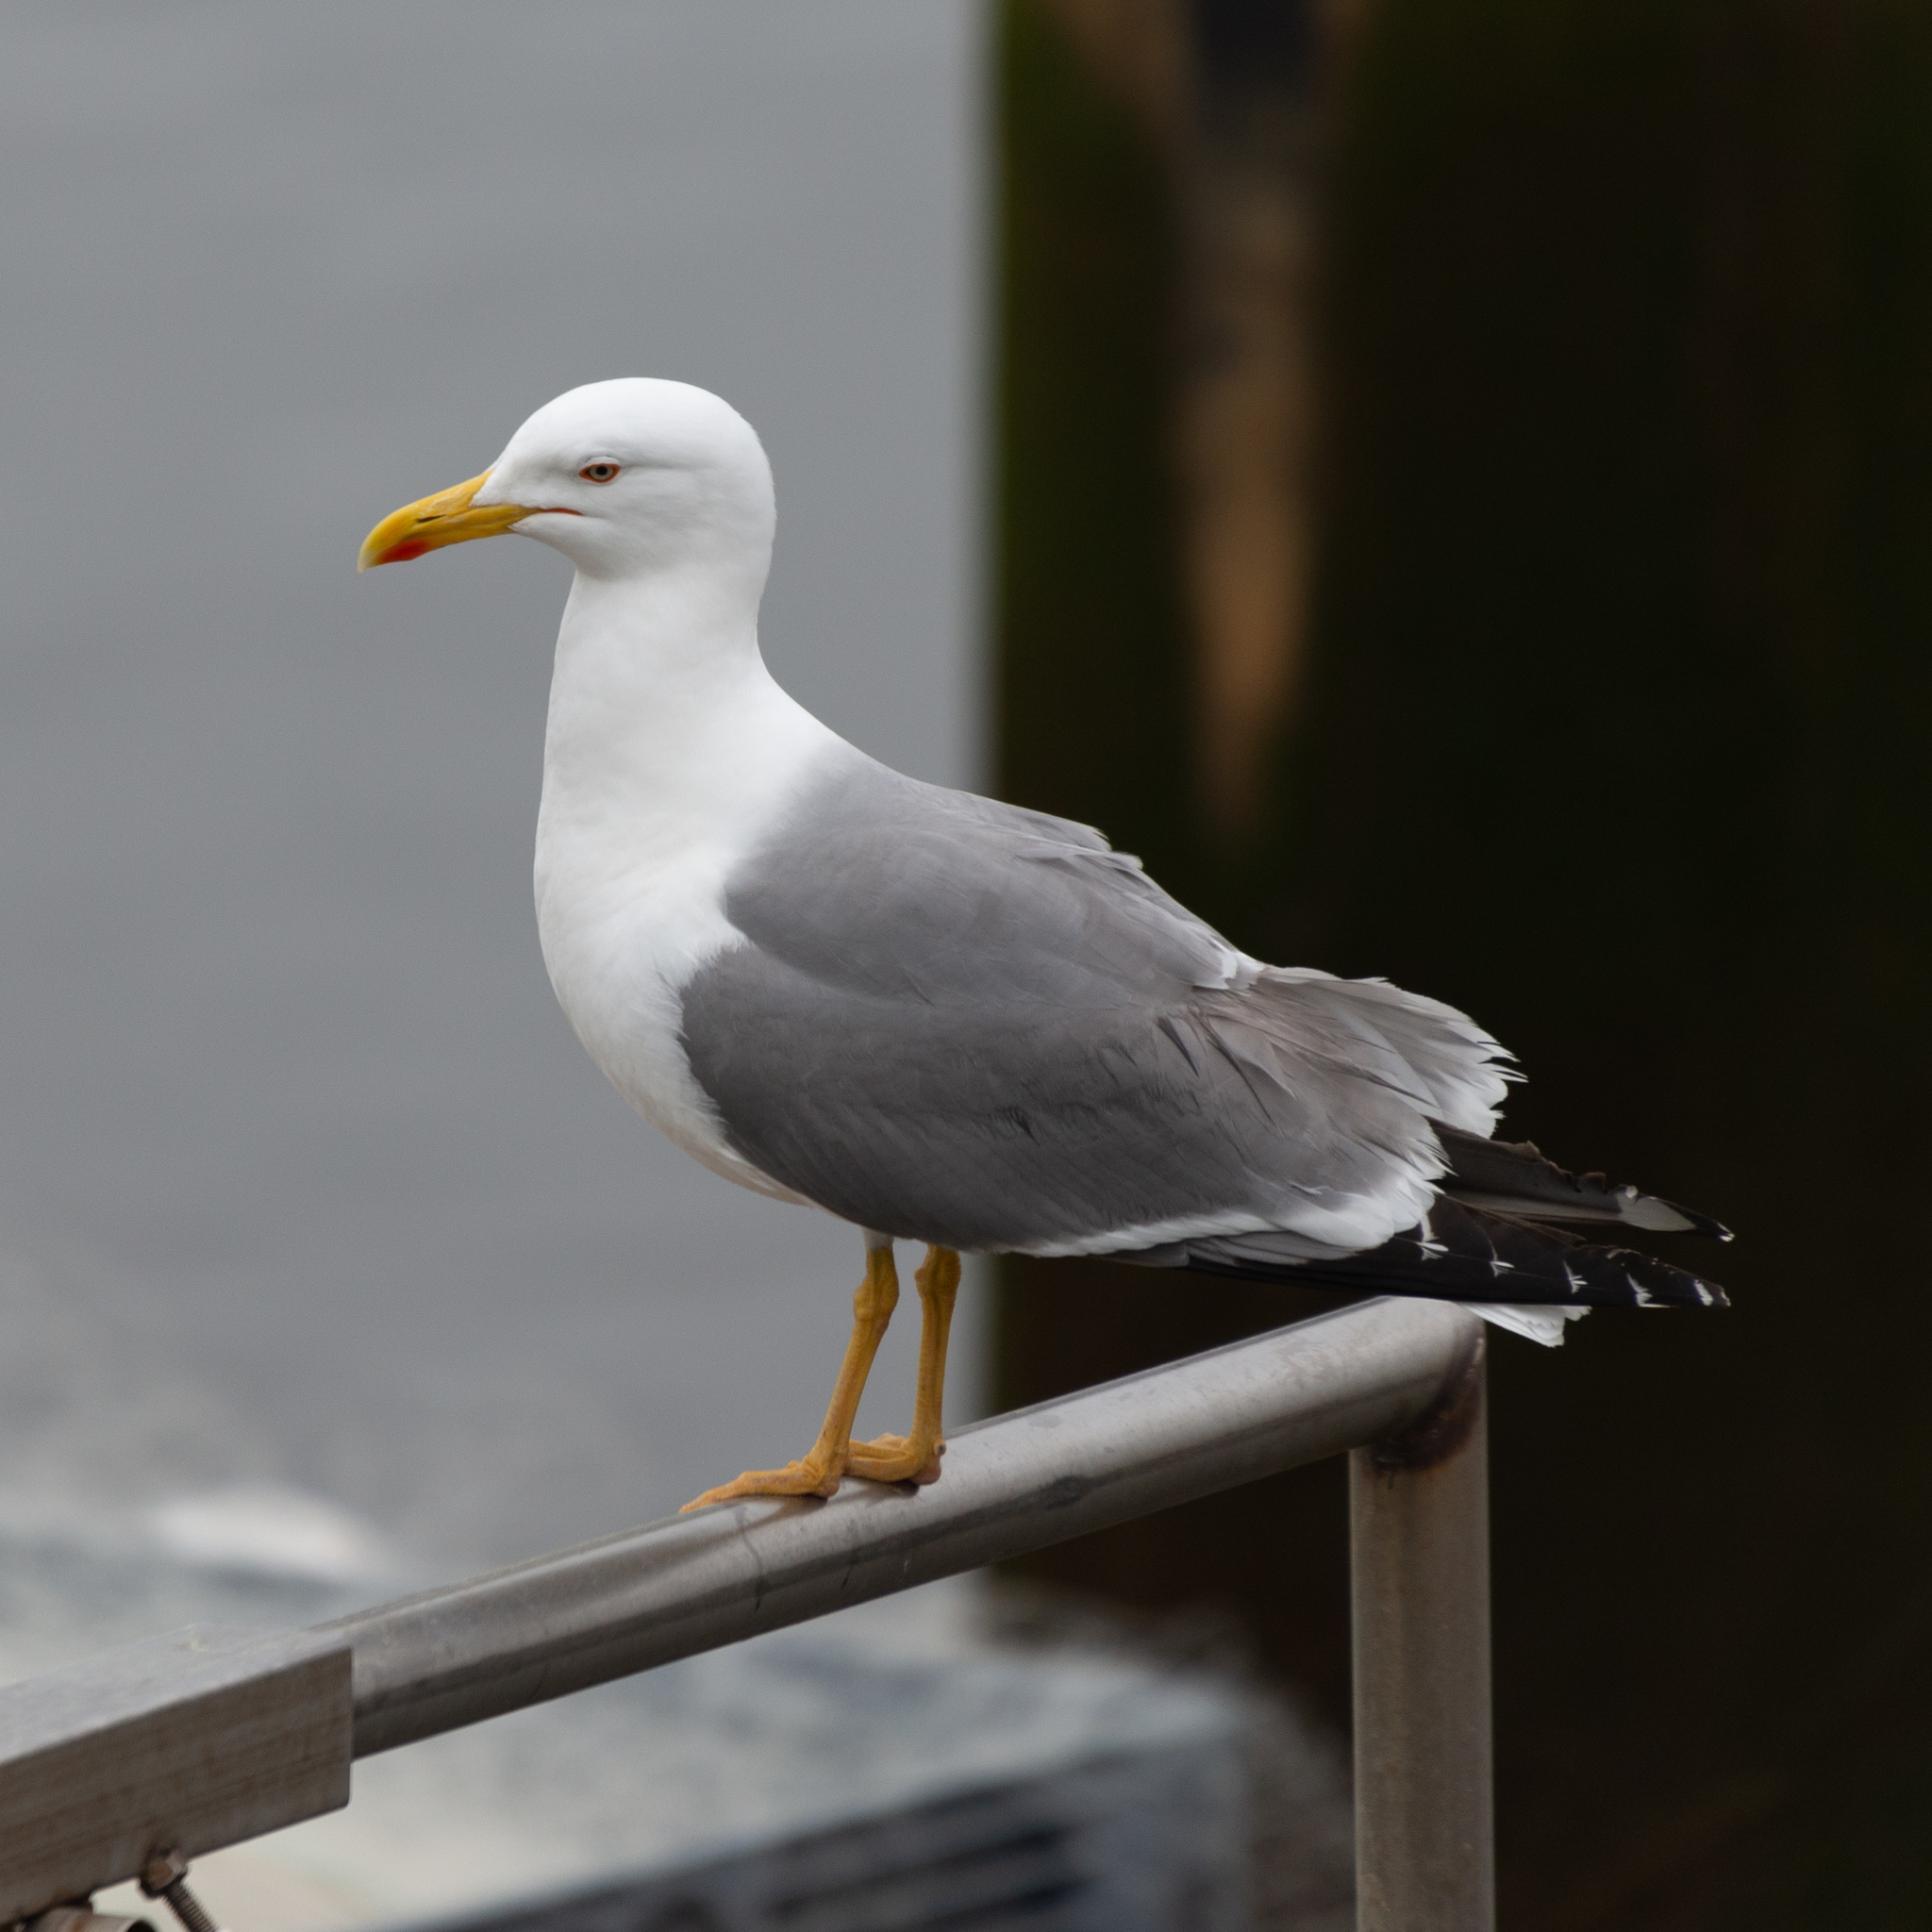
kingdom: Animalia
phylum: Chordata
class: Aves
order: Charadriiformes
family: Laridae
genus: Larus
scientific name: Larus michahellis
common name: Yellow-legged gull
